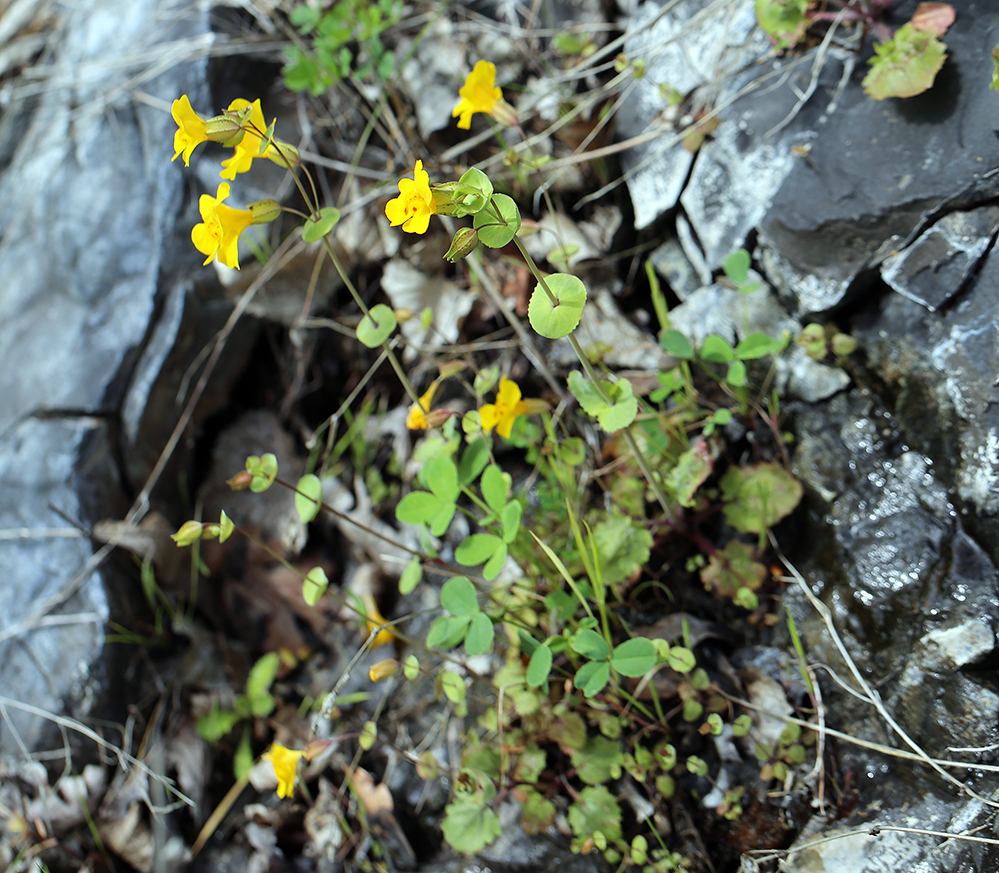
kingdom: Plantae
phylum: Tracheophyta
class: Magnoliopsida
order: Lamiales
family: Phrymaceae
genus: Erythranthe
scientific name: Erythranthe glaucescens
